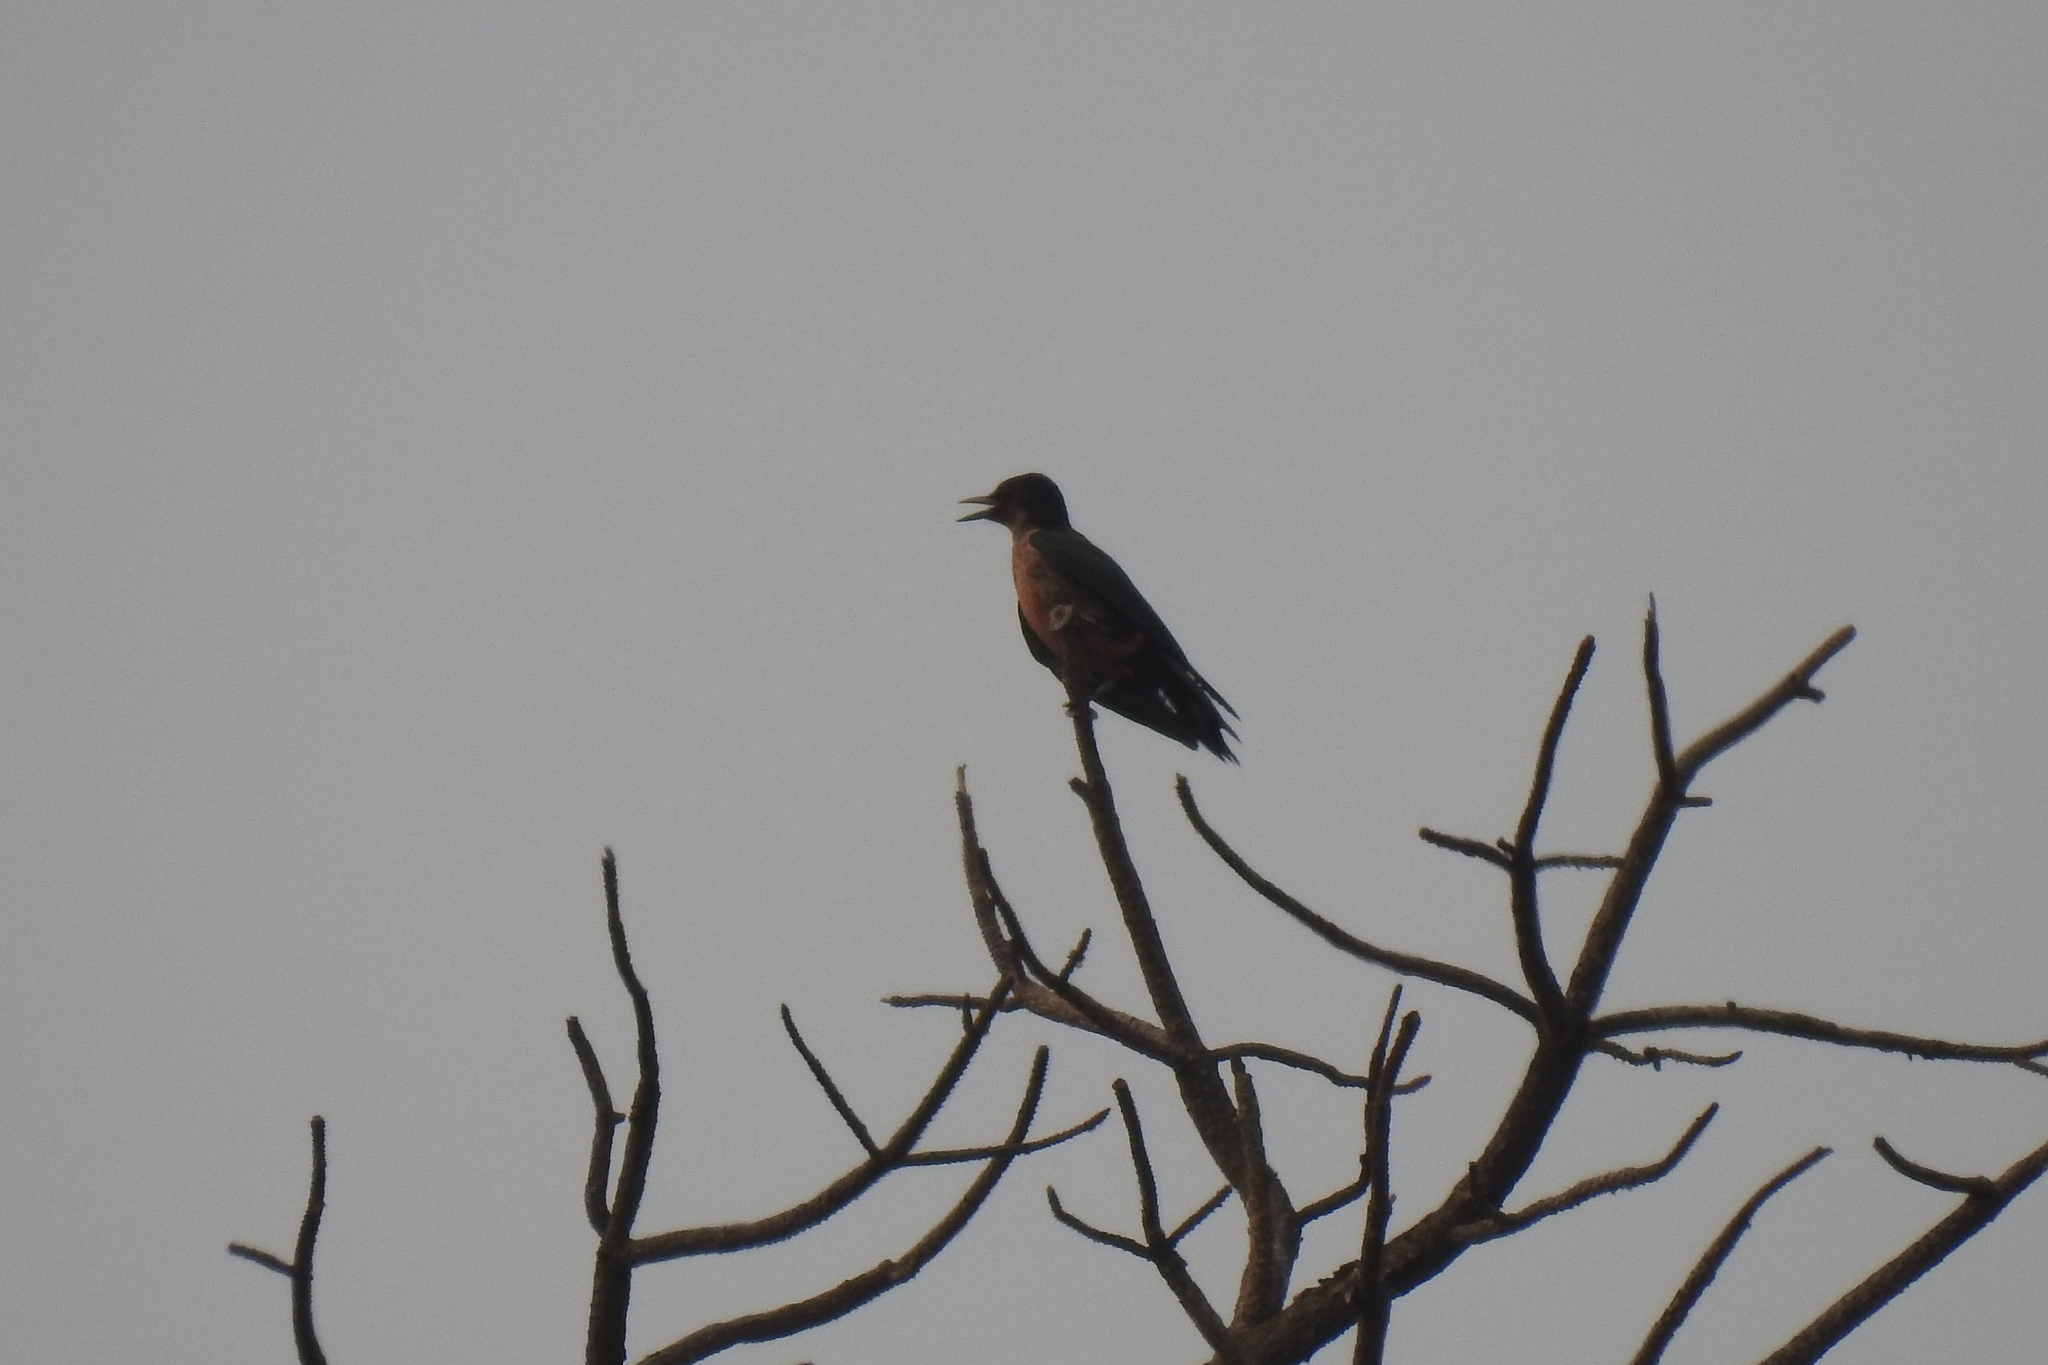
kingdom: Animalia
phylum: Chordata
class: Aves
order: Piciformes
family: Picidae
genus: Melanerpes
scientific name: Melanerpes lewis
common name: Lewis's woodpecker
